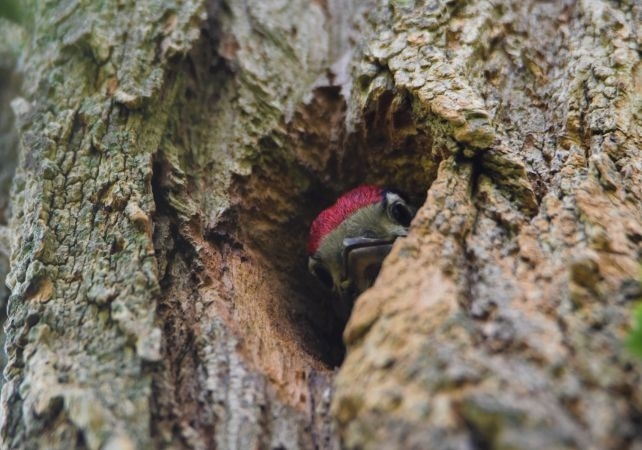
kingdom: Animalia
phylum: Chordata
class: Aves
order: Piciformes
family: Picidae
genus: Dendrocopos
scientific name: Dendrocopos major
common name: Great spotted woodpecker
